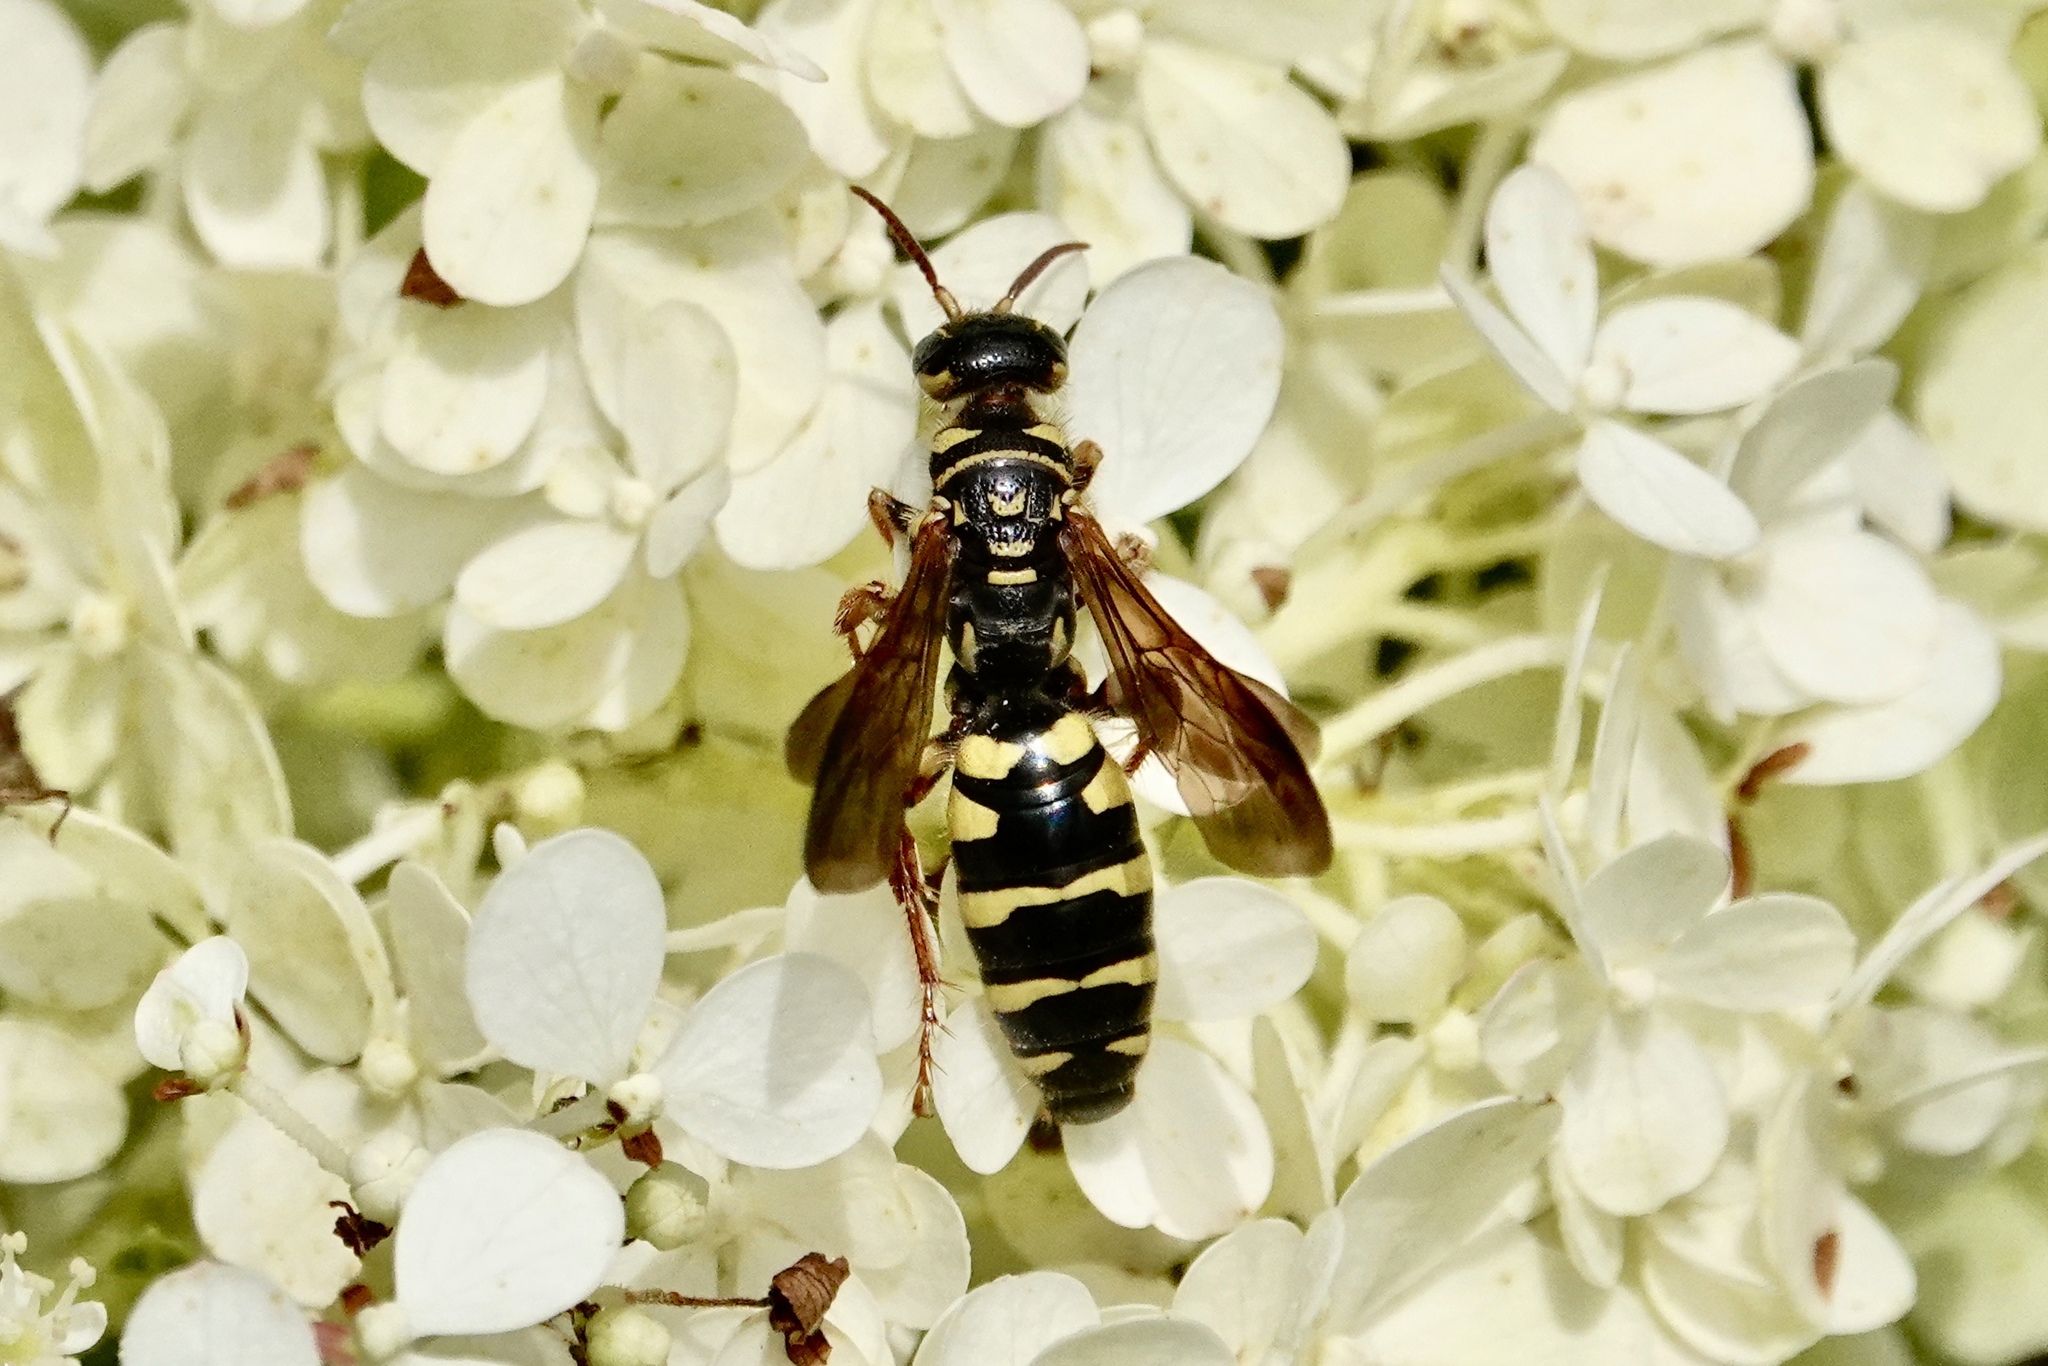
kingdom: Animalia
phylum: Arthropoda
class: Insecta
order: Hymenoptera
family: Tiphiidae
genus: Myzinum
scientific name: Myzinum quinquecinctum
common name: Five-banded thynnid wasp
